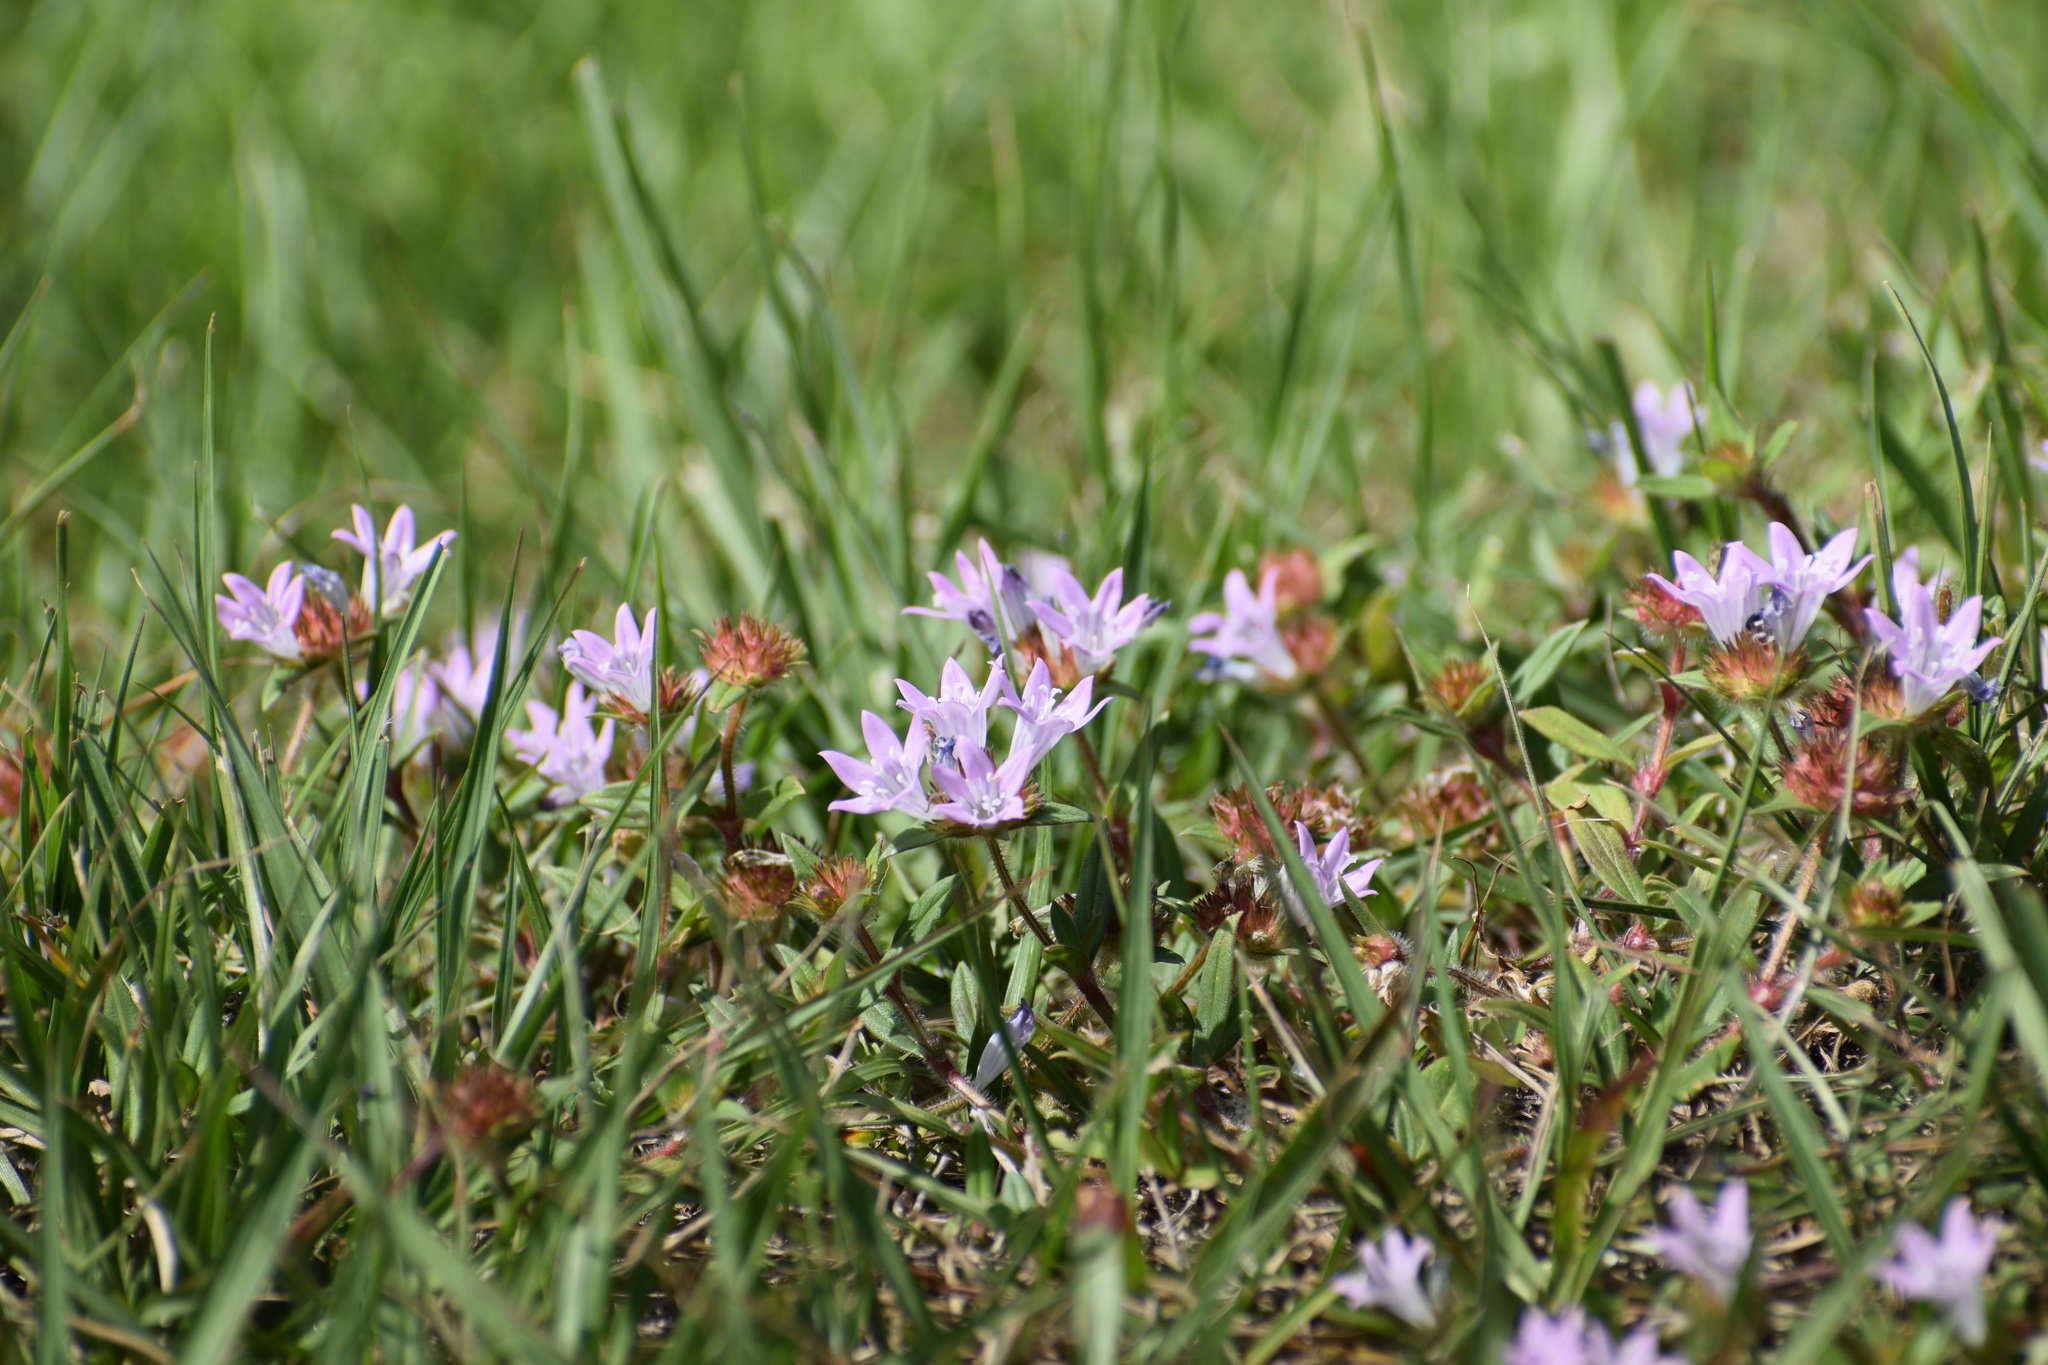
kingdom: Plantae
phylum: Tracheophyta
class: Magnoliopsida
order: Gentianales
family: Rubiaceae
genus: Richardia
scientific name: Richardia grandiflora
